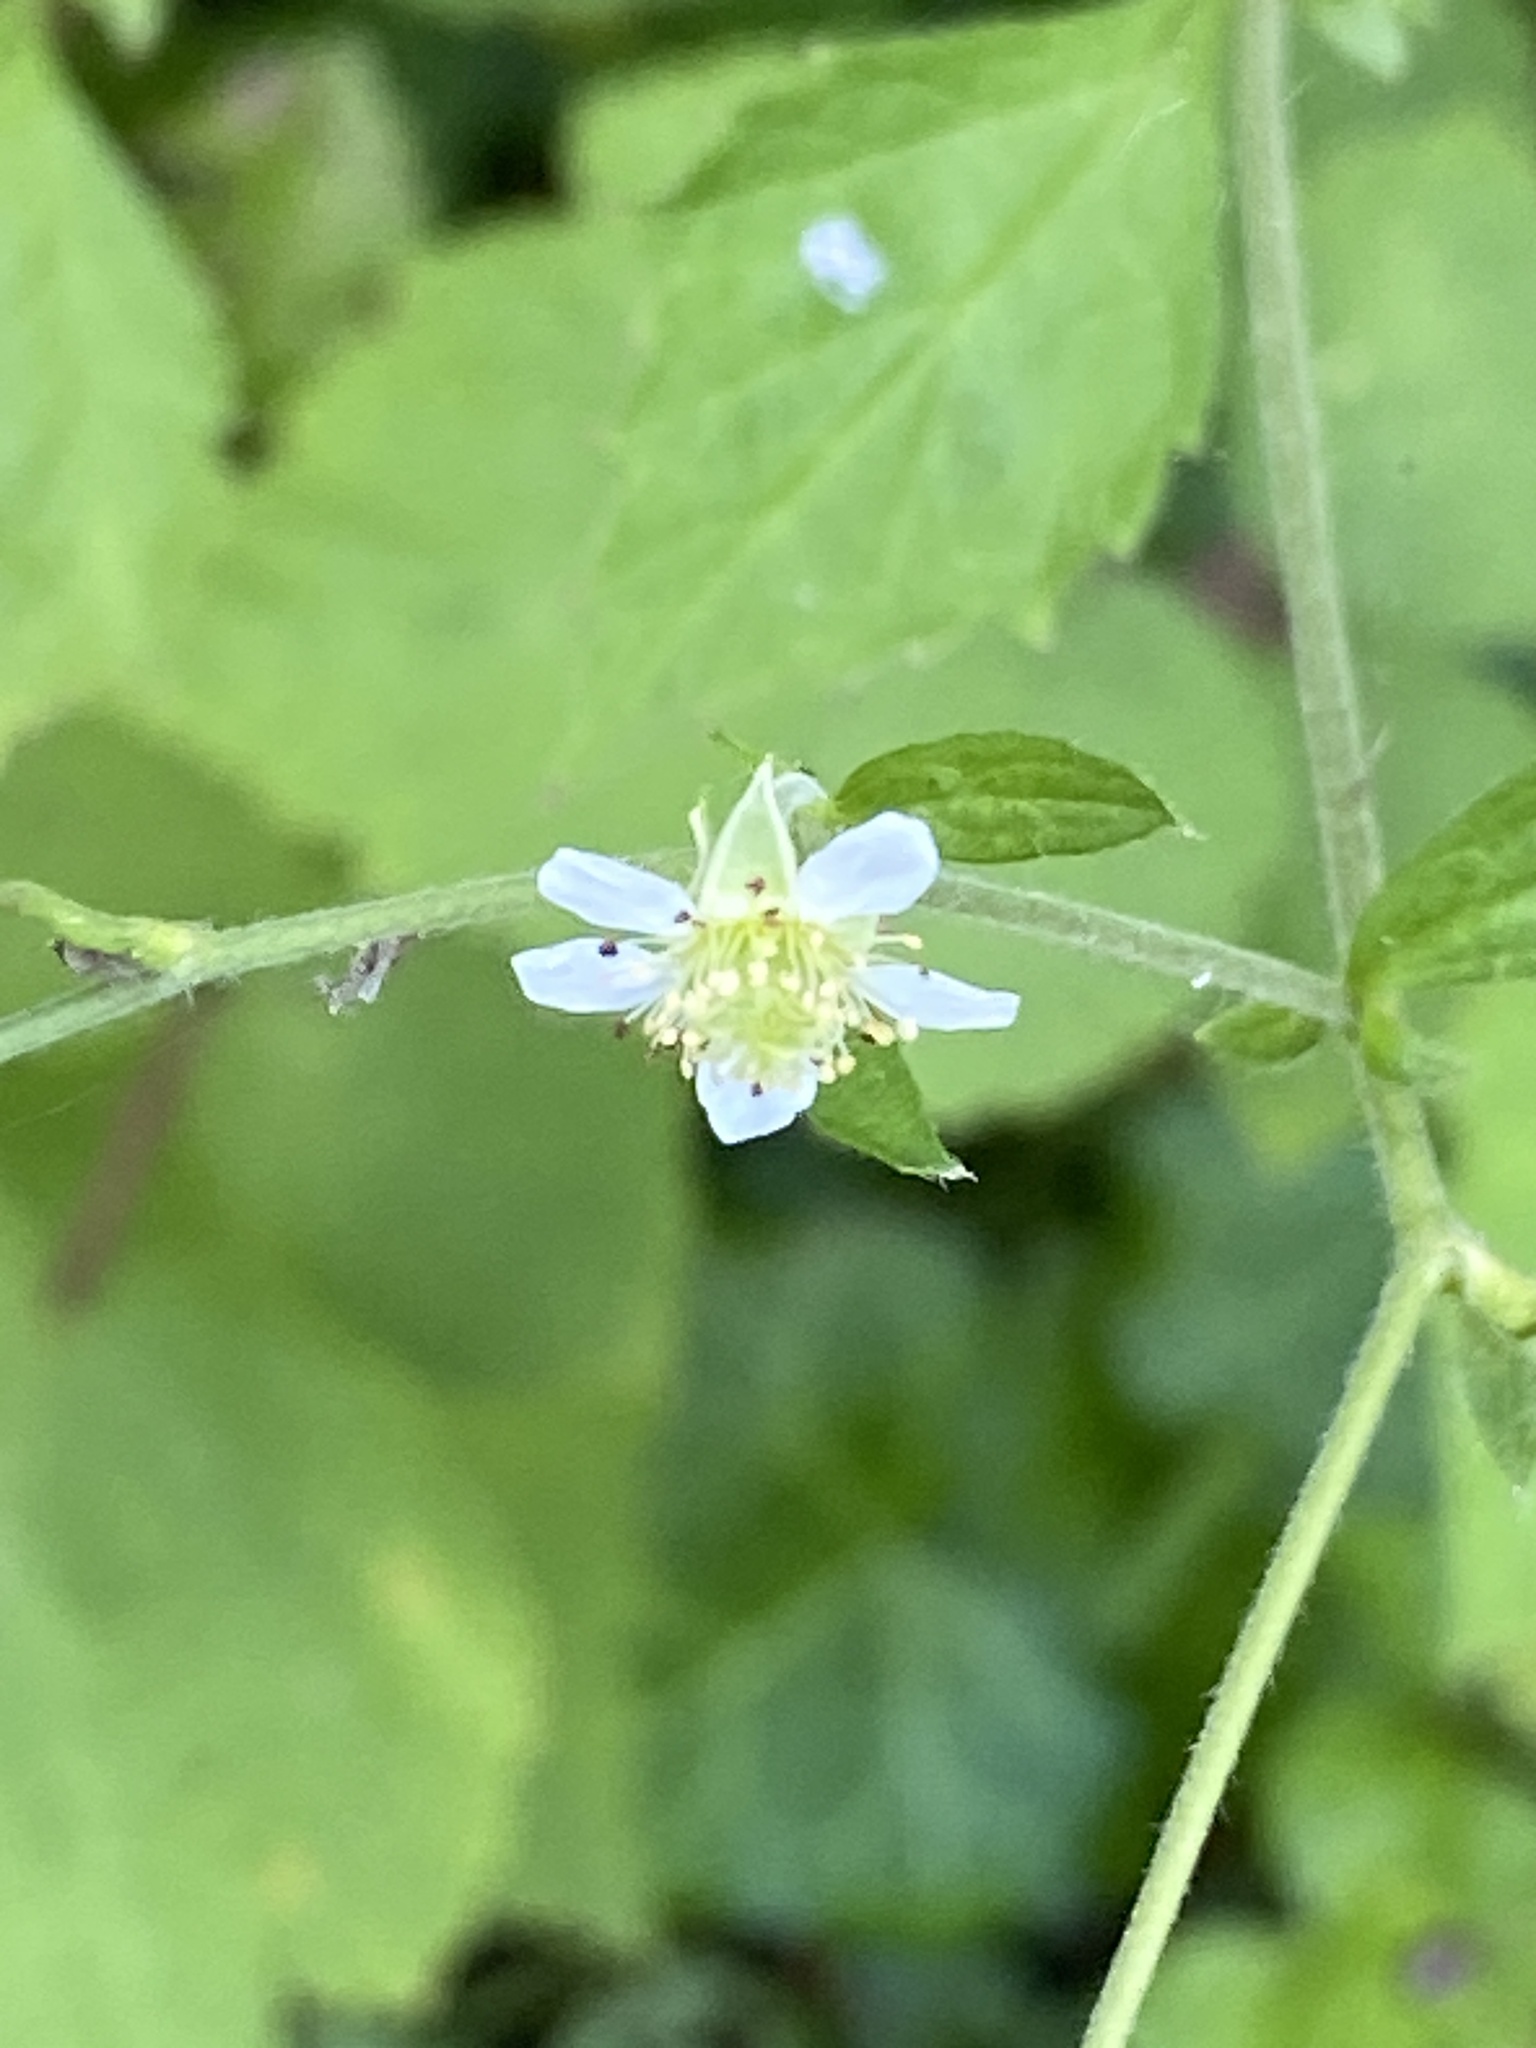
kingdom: Plantae
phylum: Tracheophyta
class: Magnoliopsida
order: Rosales
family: Rosaceae
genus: Geum
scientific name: Geum canadense
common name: White avens
